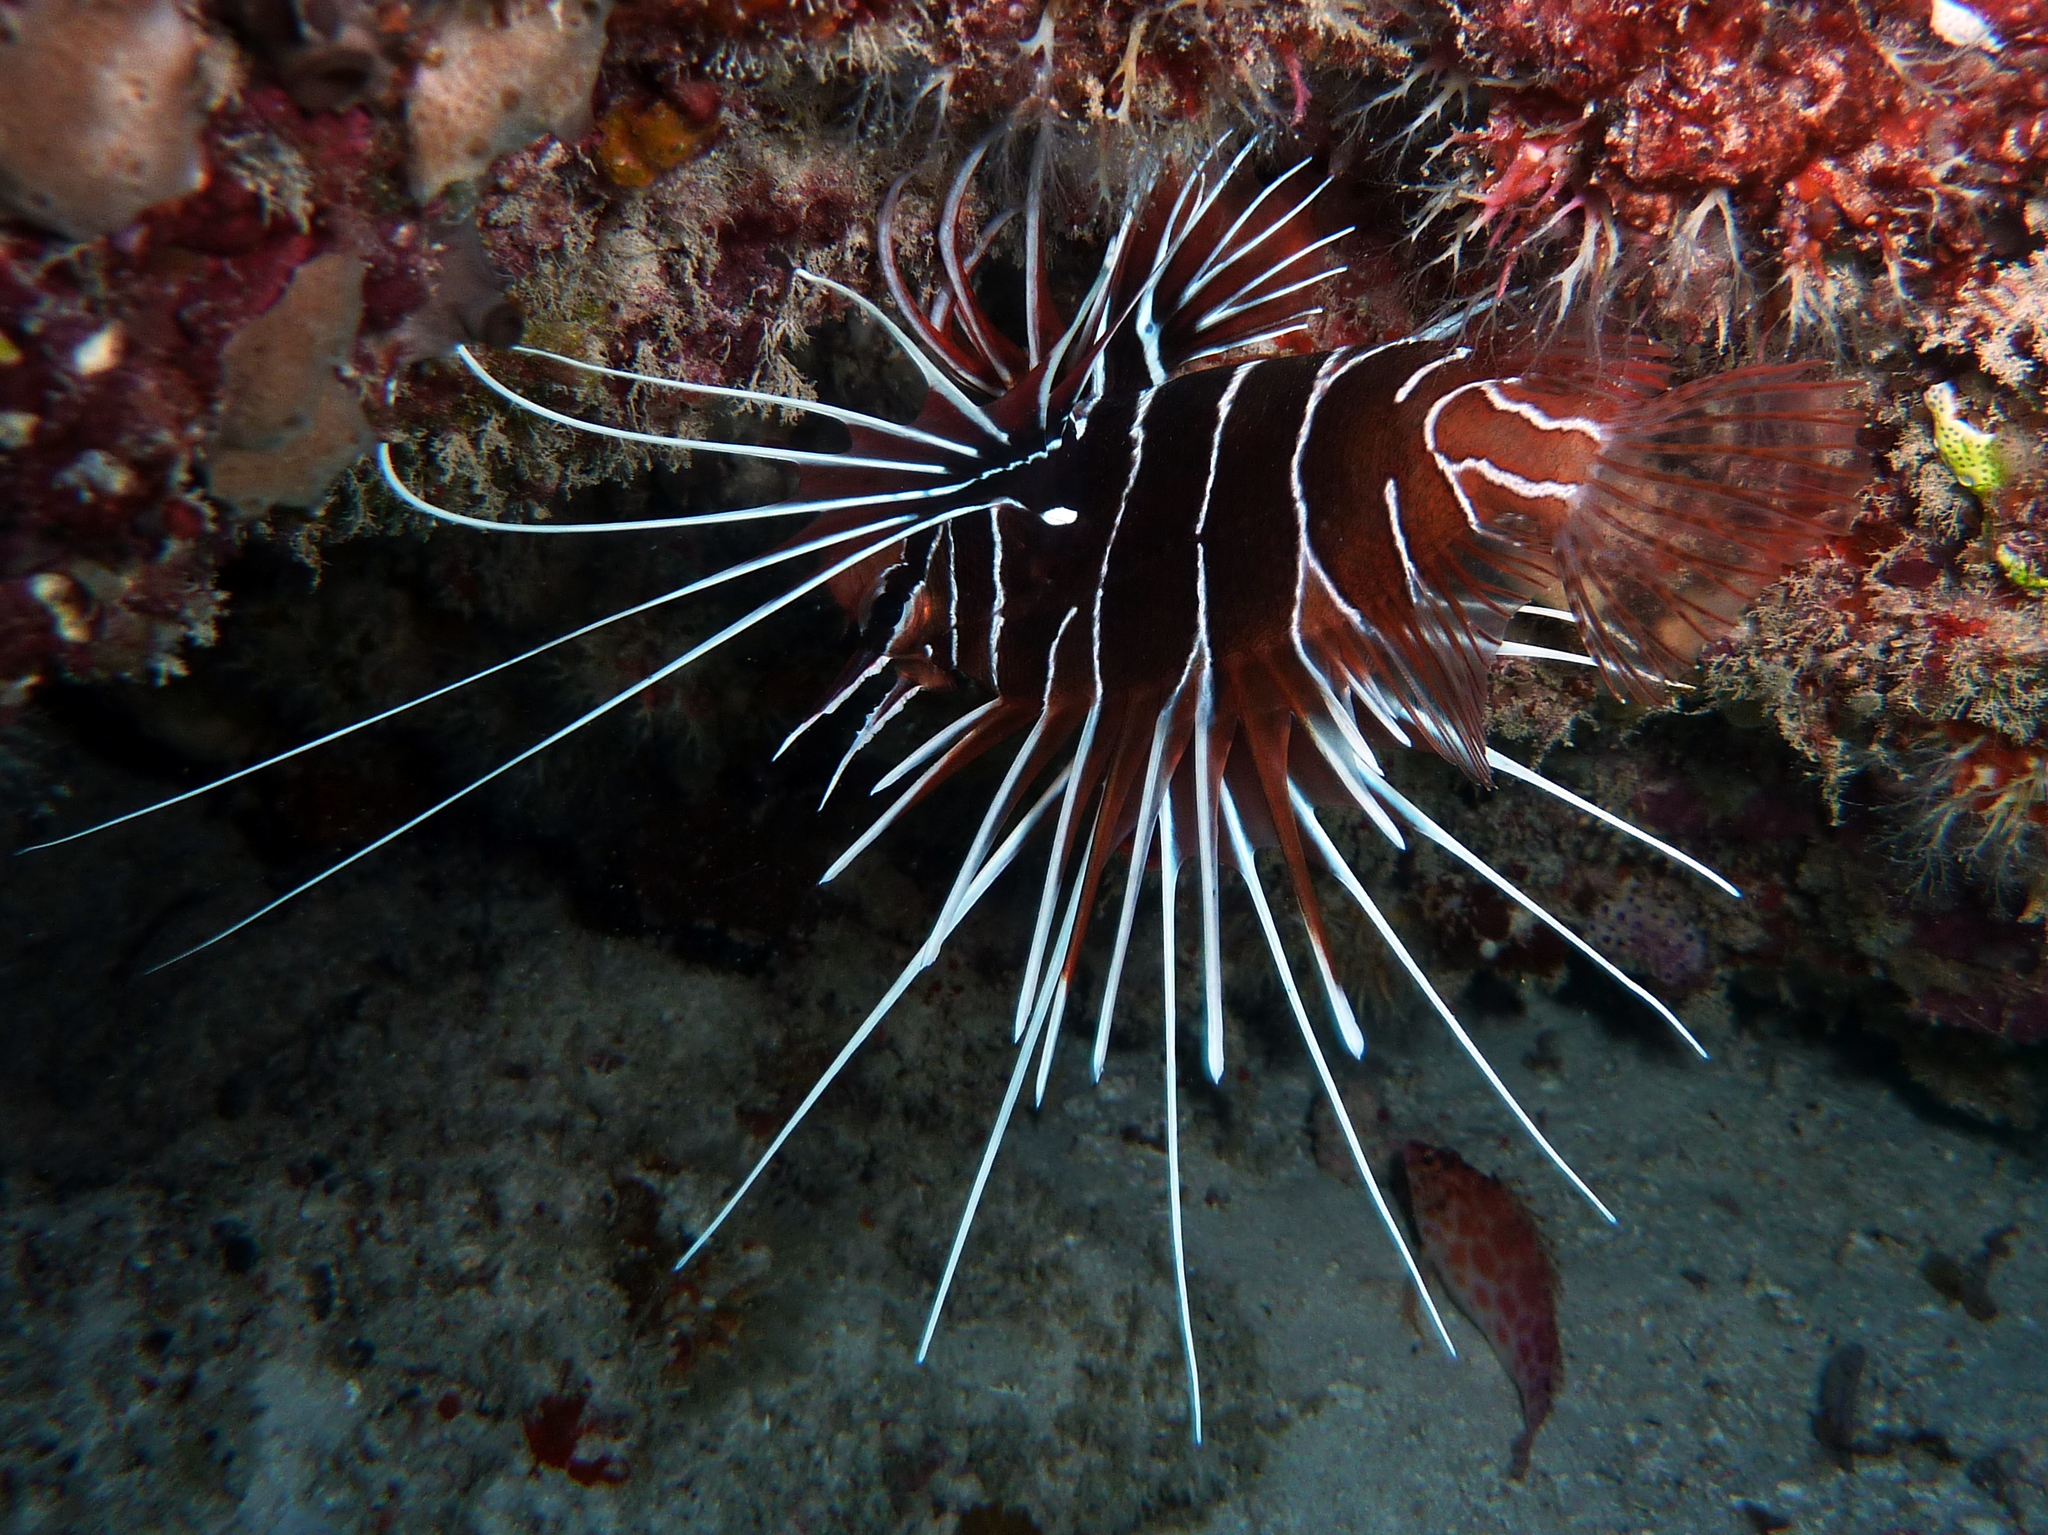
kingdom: Animalia
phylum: Chordata
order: Scorpaeniformes
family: Scorpaenidae
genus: Pterois
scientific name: Pterois radiata
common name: Radial firefish
